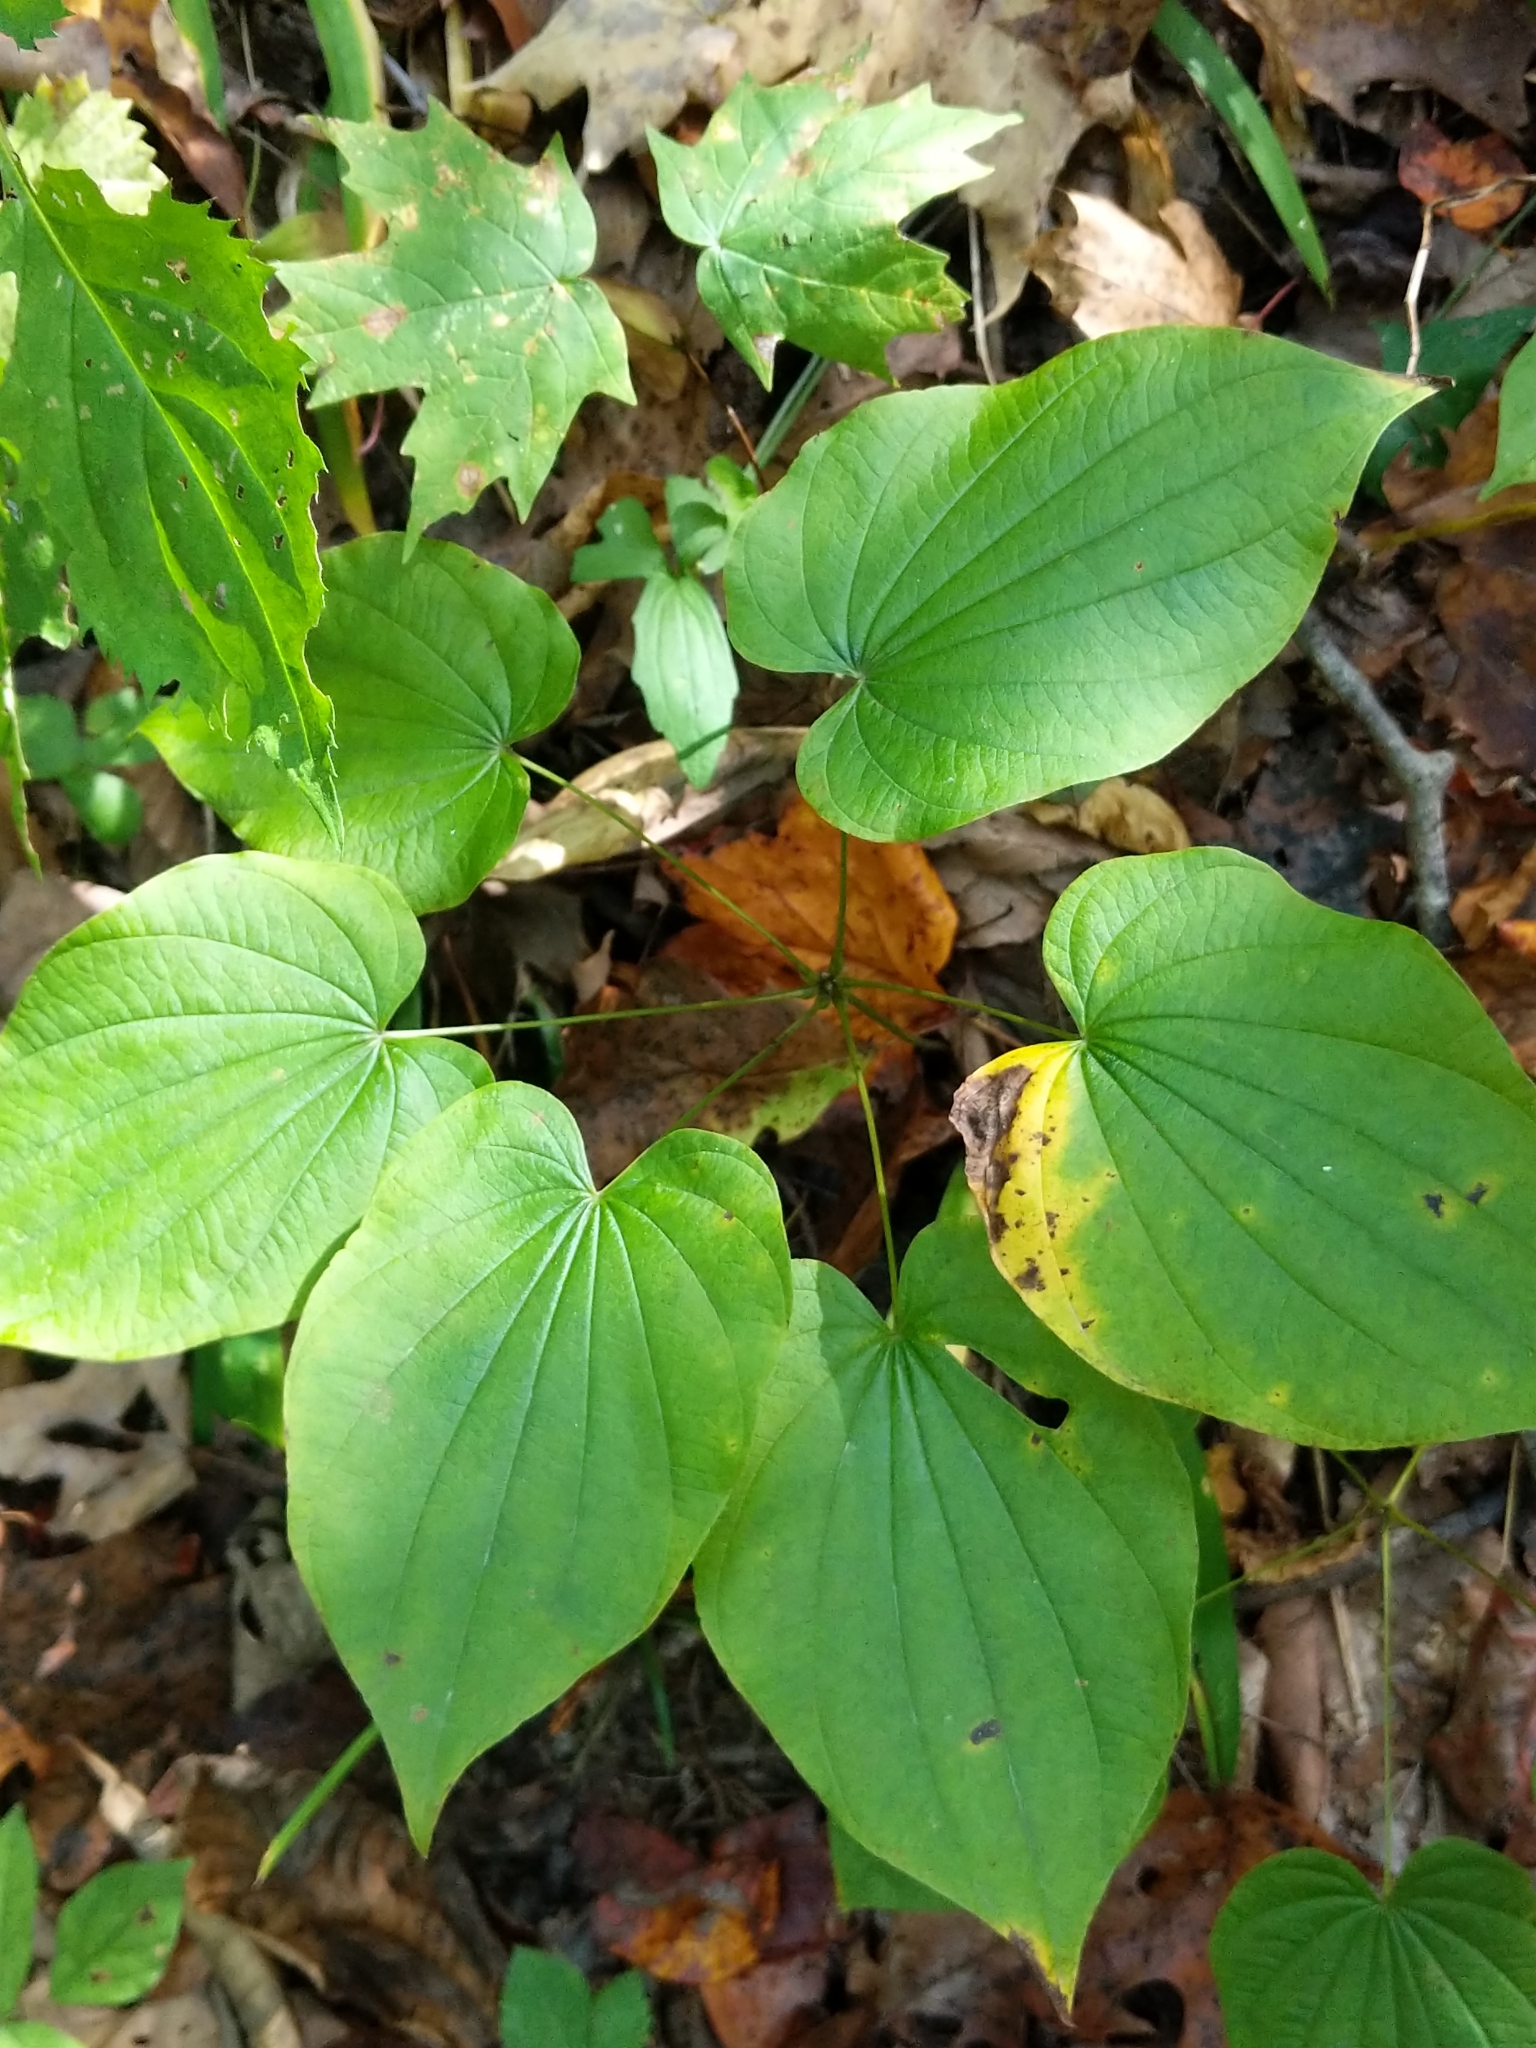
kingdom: Plantae
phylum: Tracheophyta
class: Liliopsida
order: Dioscoreales
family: Dioscoreaceae
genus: Dioscorea
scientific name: Dioscorea villosa
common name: Wild yam
